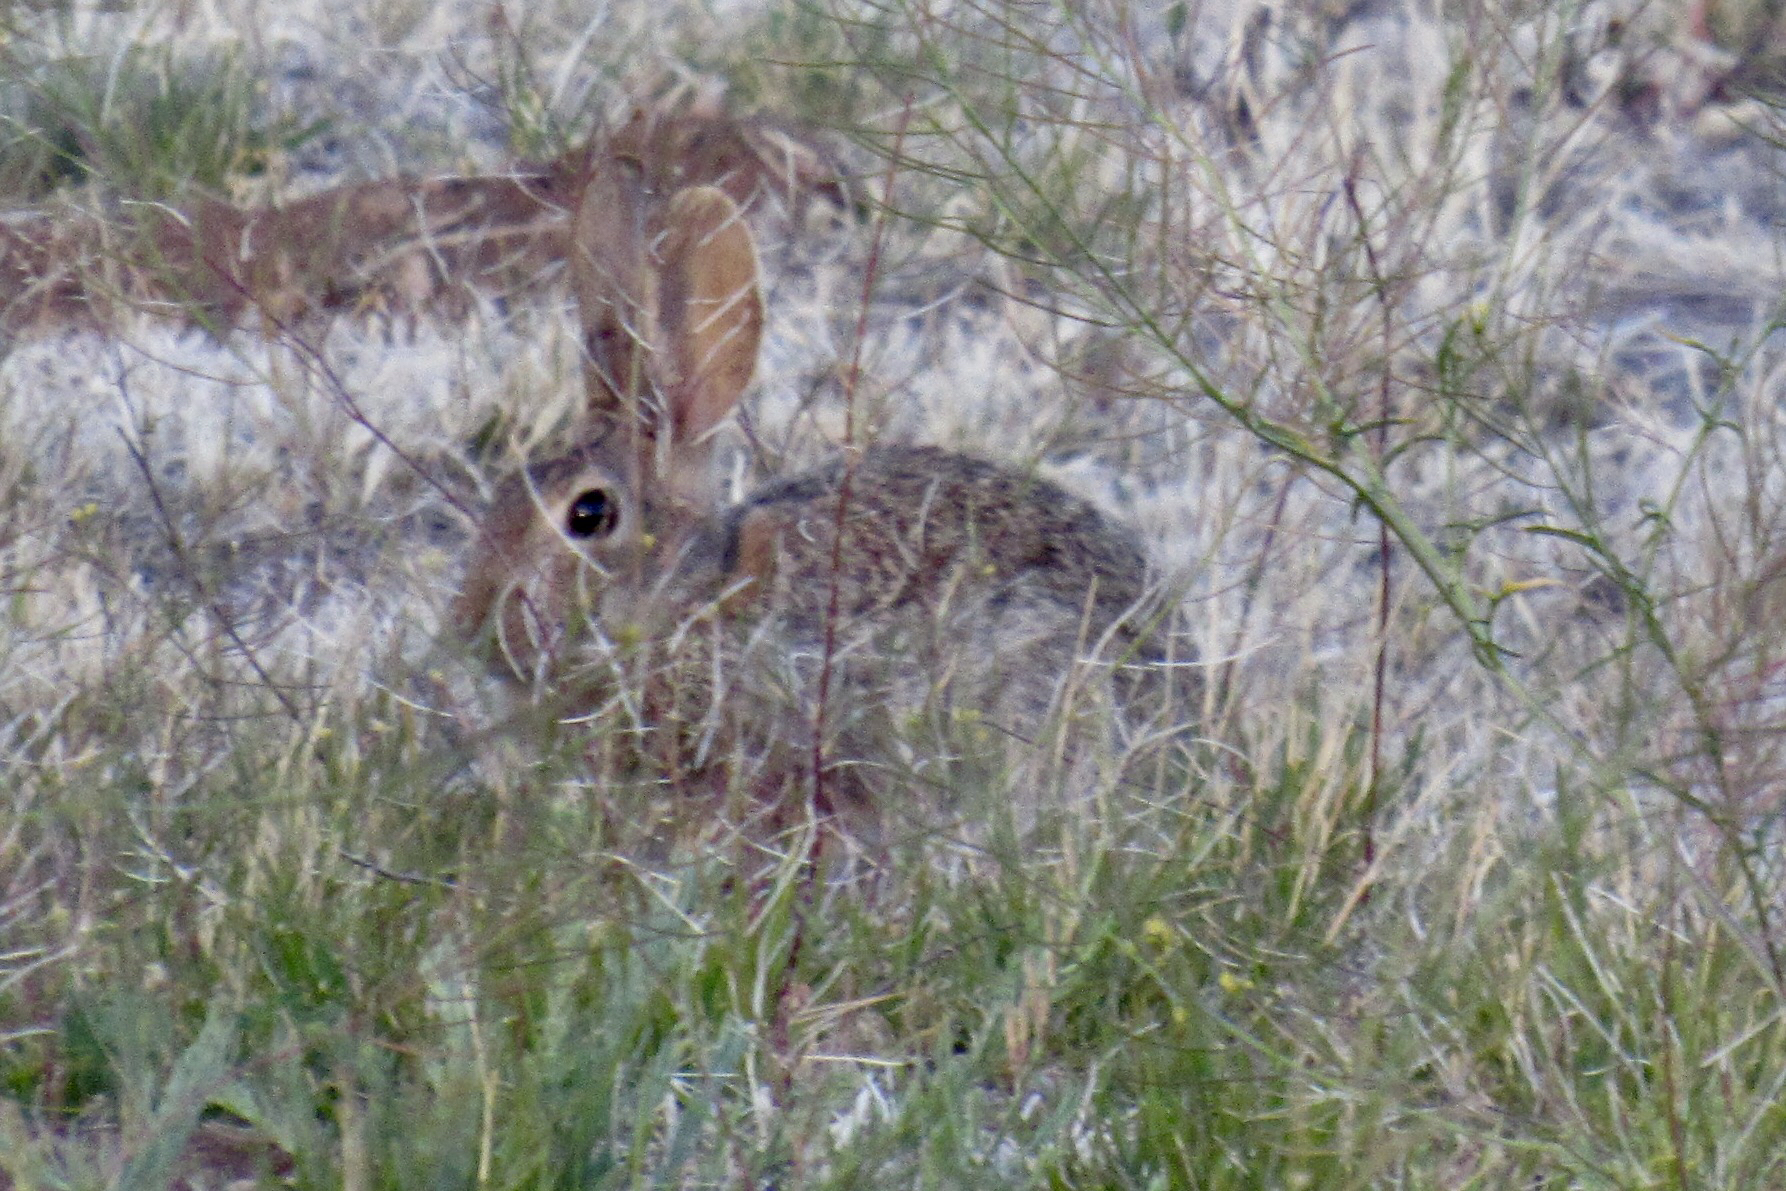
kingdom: Animalia
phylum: Chordata
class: Mammalia
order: Lagomorpha
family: Leporidae
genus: Sylvilagus
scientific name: Sylvilagus audubonii
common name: Desert cottontail
